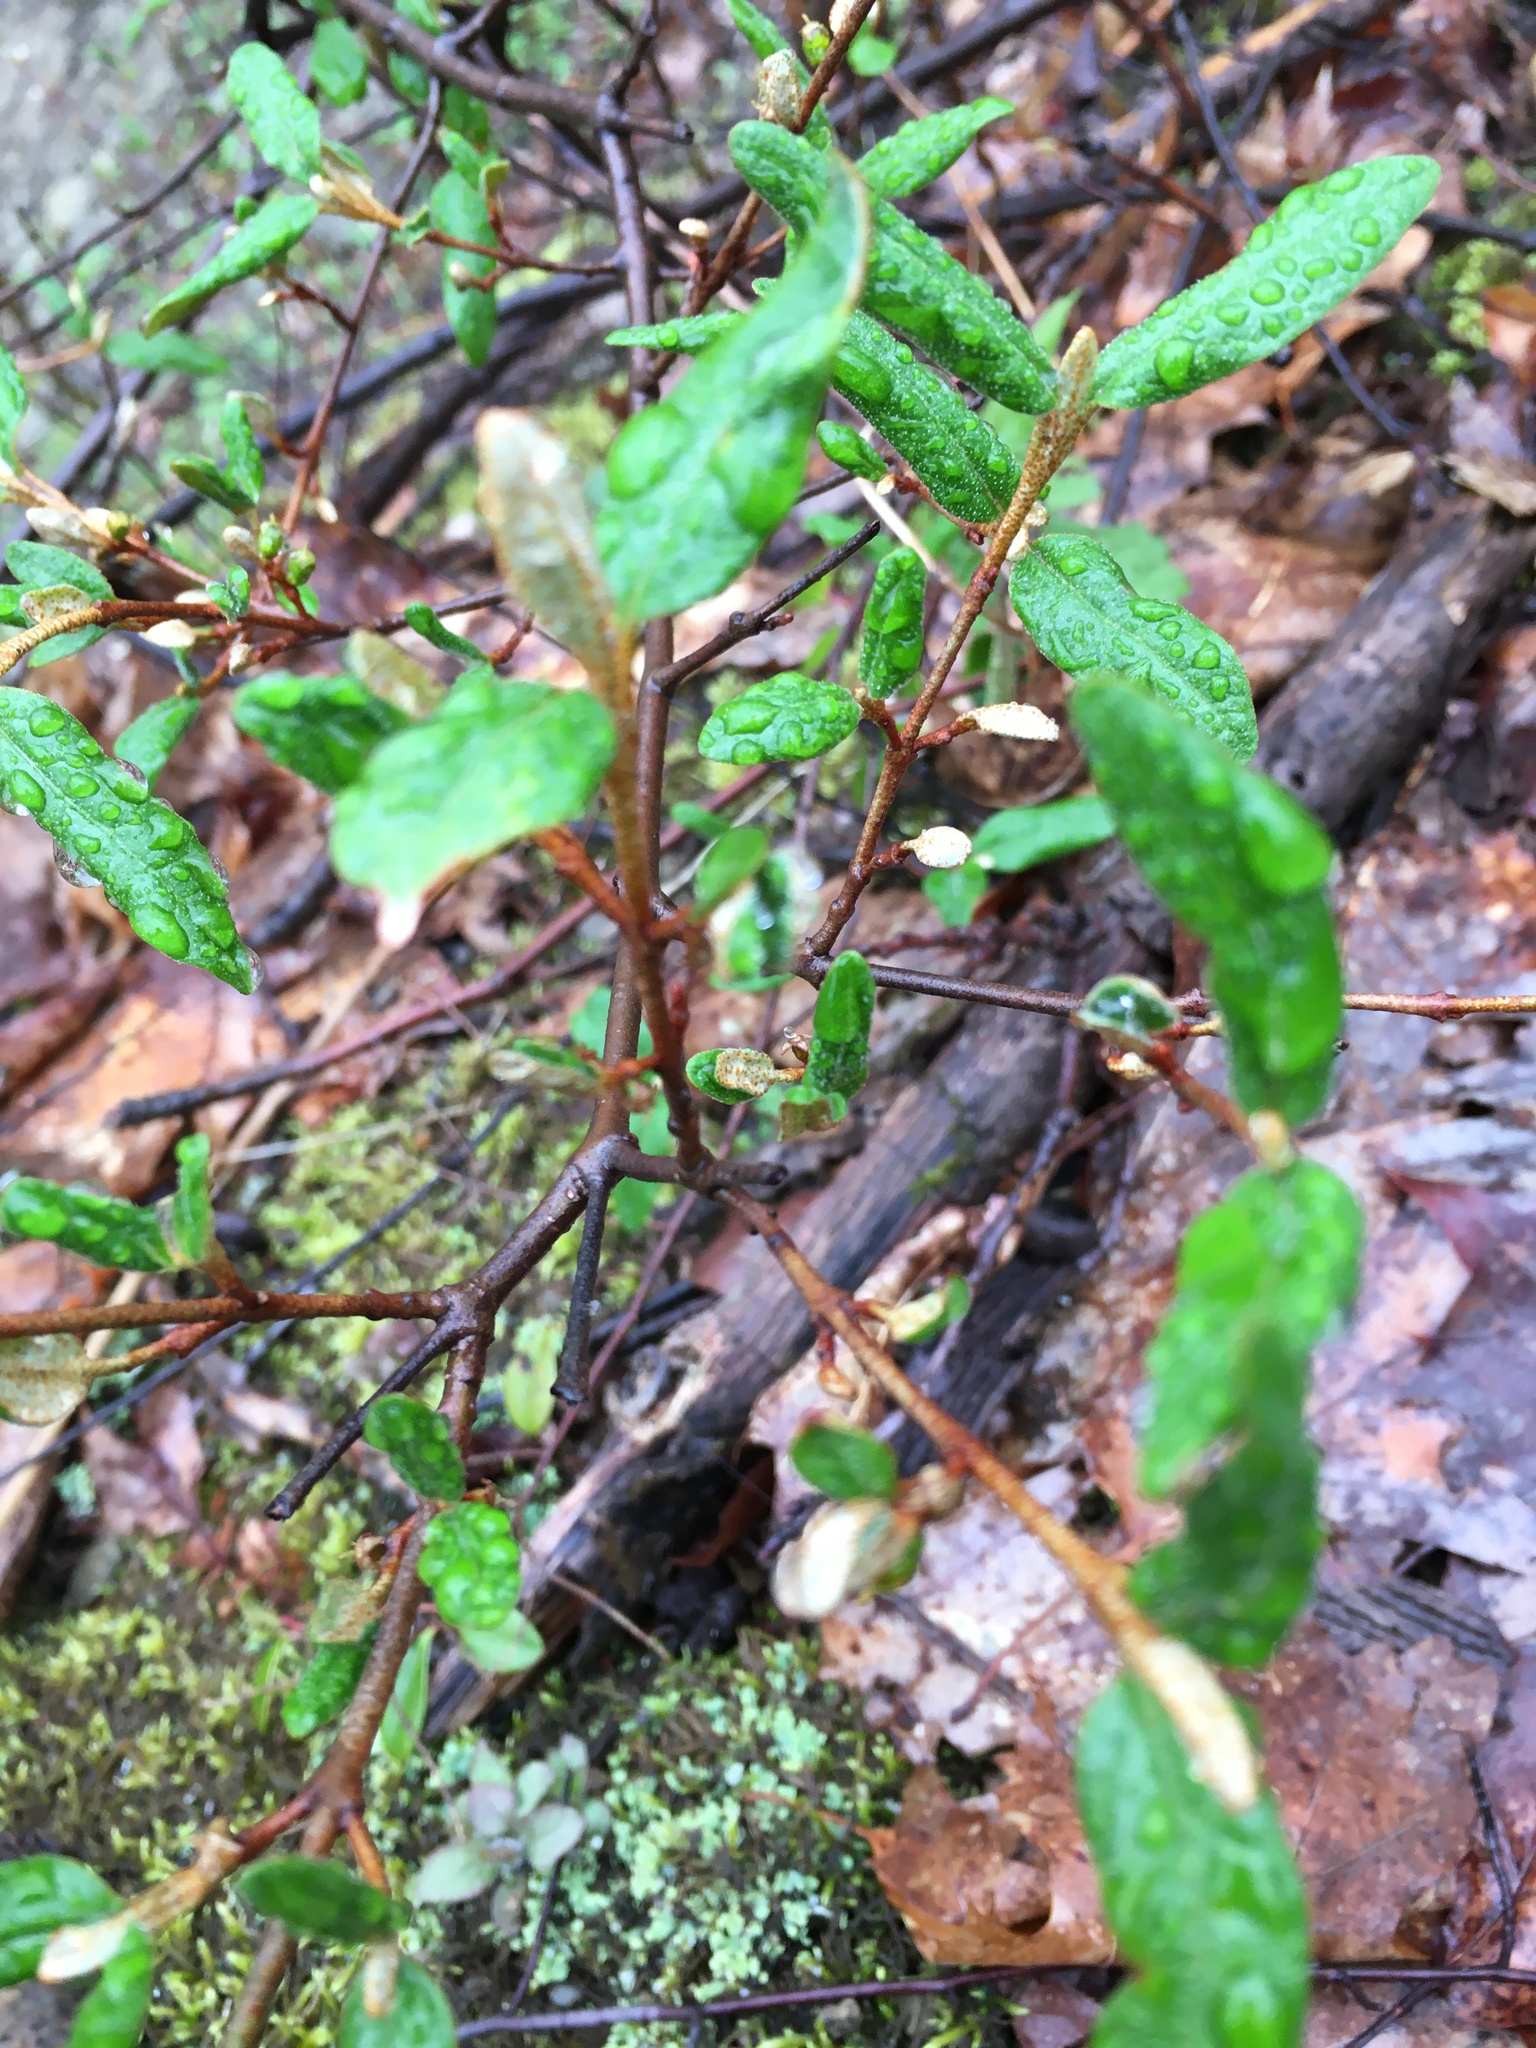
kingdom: Plantae
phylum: Tracheophyta
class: Magnoliopsida
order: Rosales
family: Elaeagnaceae
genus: Shepherdia
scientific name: Shepherdia canadensis
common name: Soapberry
